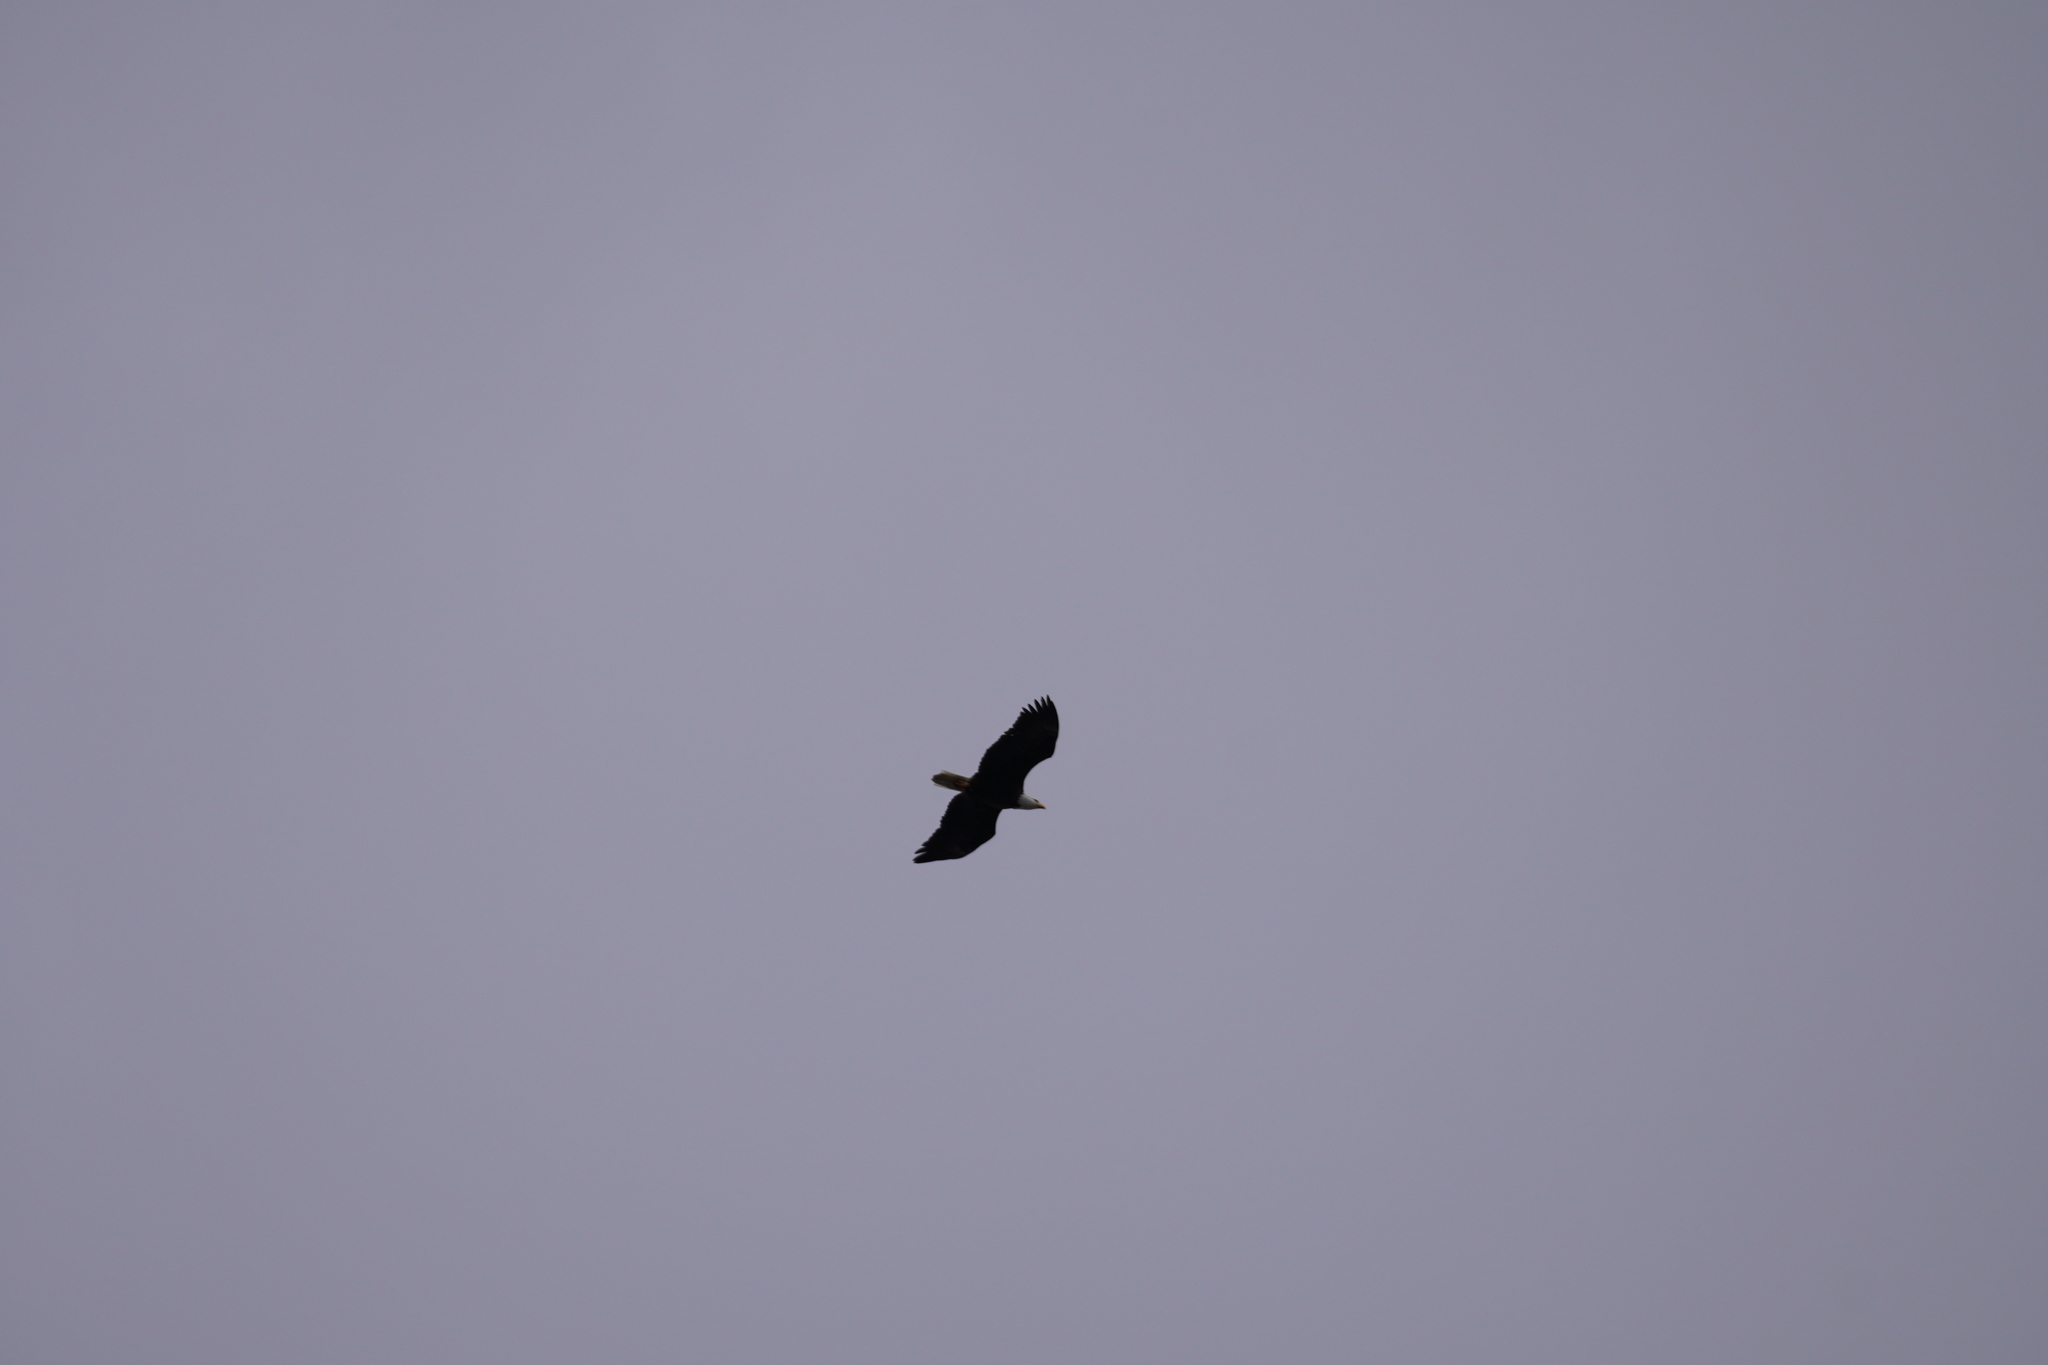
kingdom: Animalia
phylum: Chordata
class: Aves
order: Accipitriformes
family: Accipitridae
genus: Haliaeetus
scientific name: Haliaeetus leucocephalus
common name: Bald eagle
